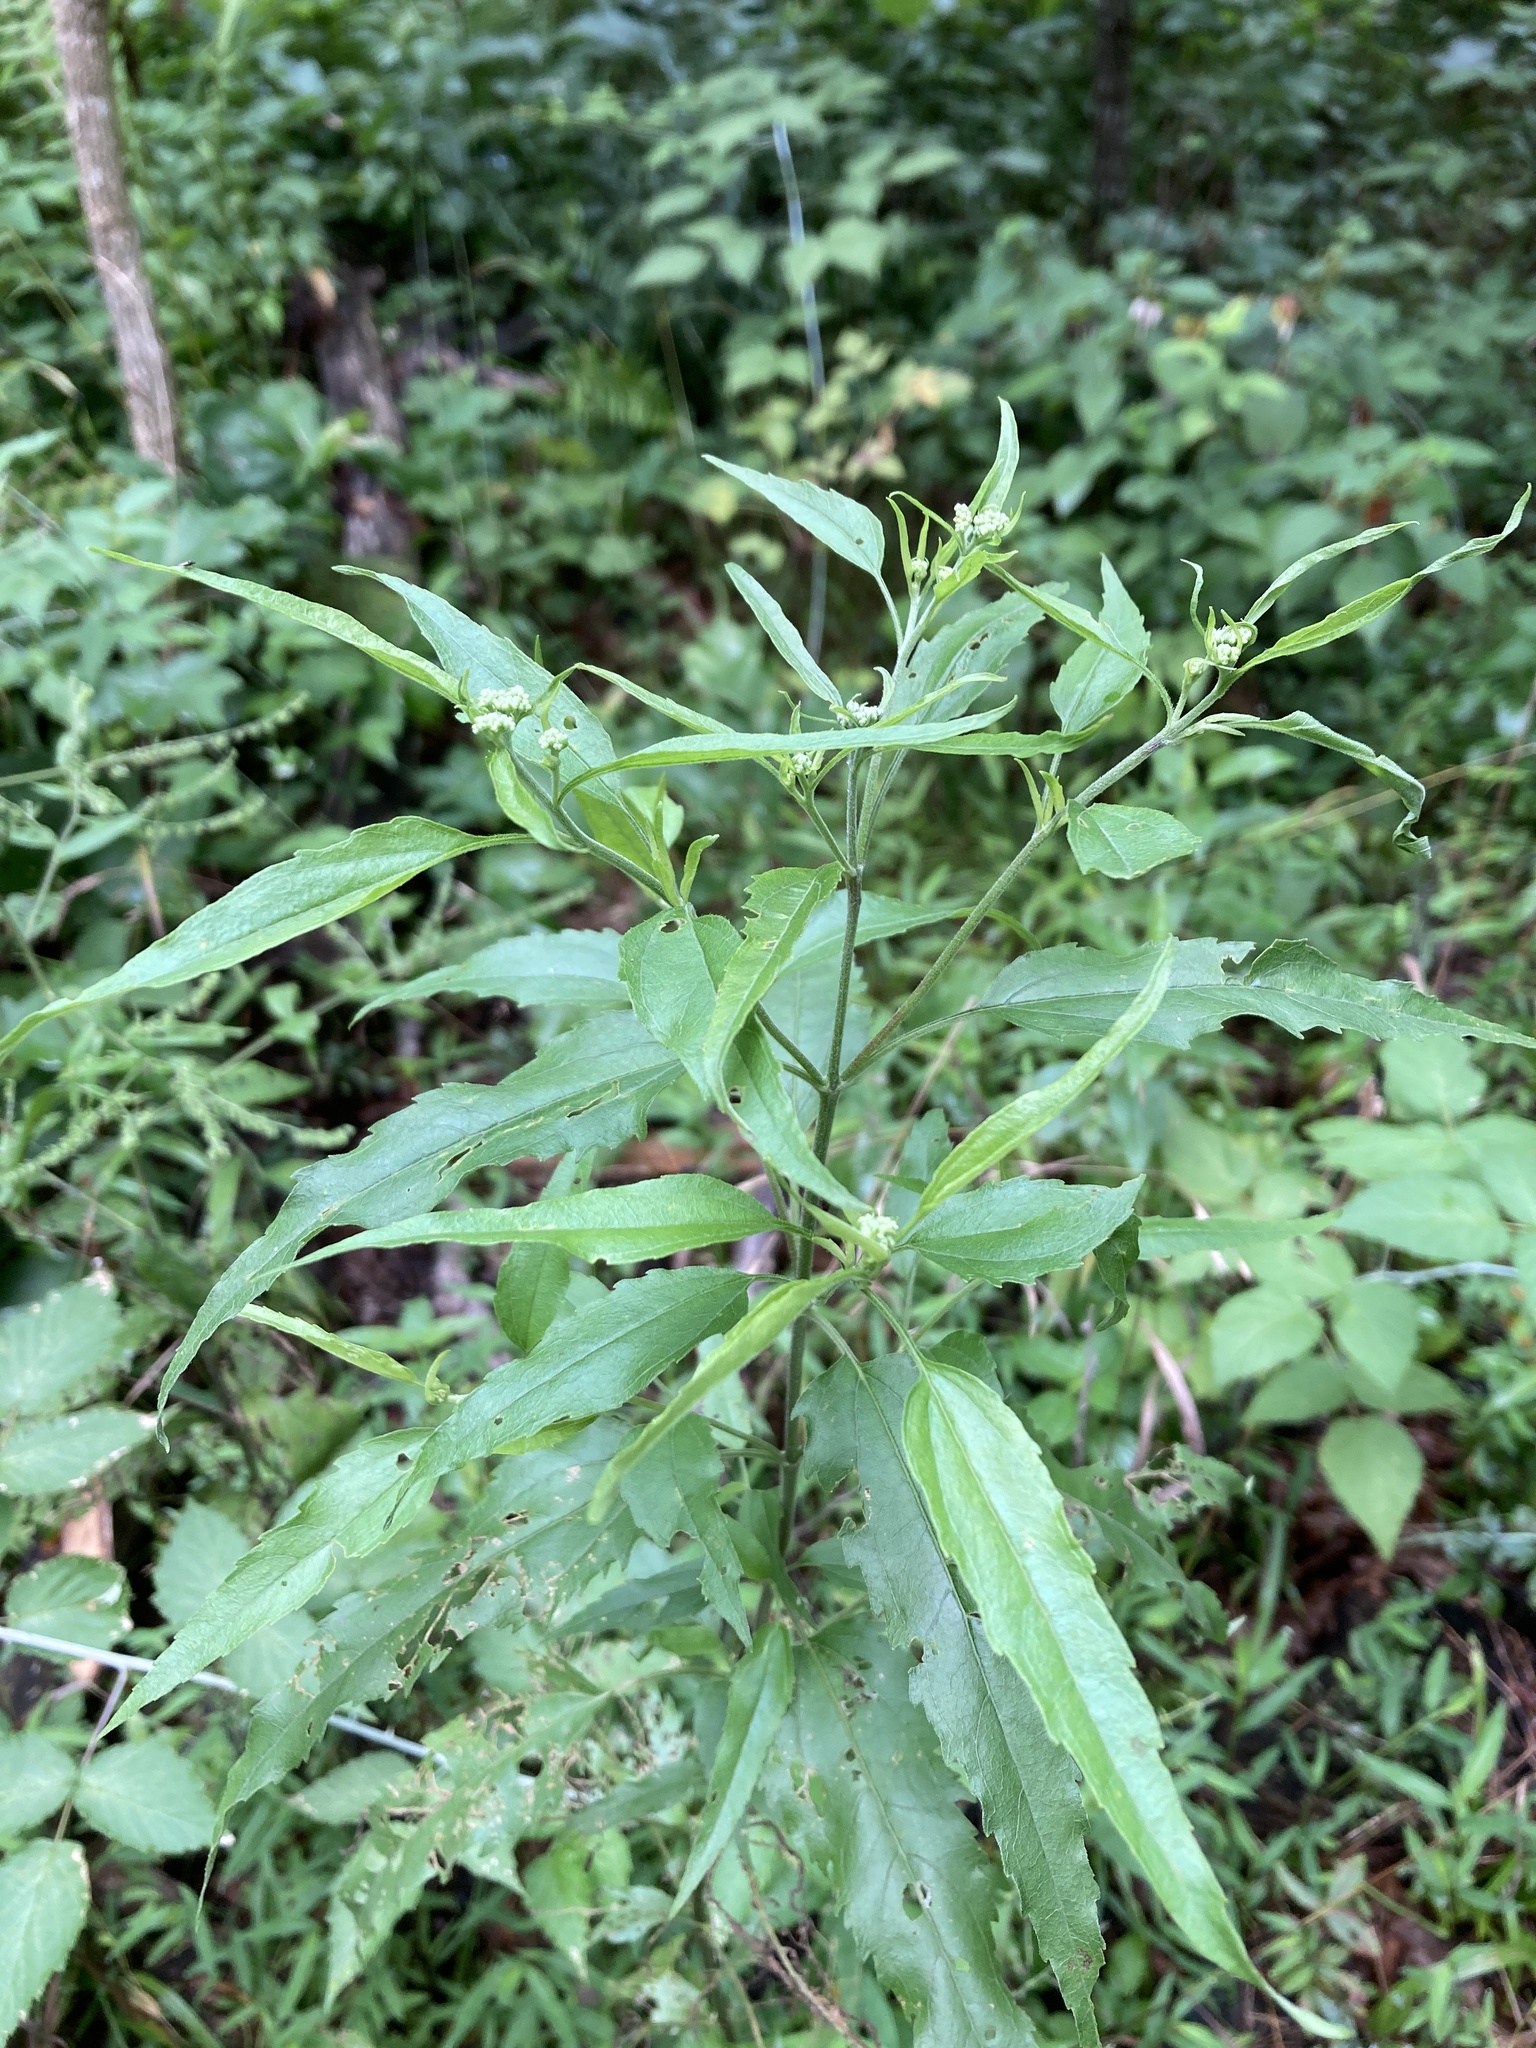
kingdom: Plantae
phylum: Tracheophyta
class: Magnoliopsida
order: Asterales
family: Asteraceae
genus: Eupatorium
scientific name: Eupatorium serotinum
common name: Late boneset
